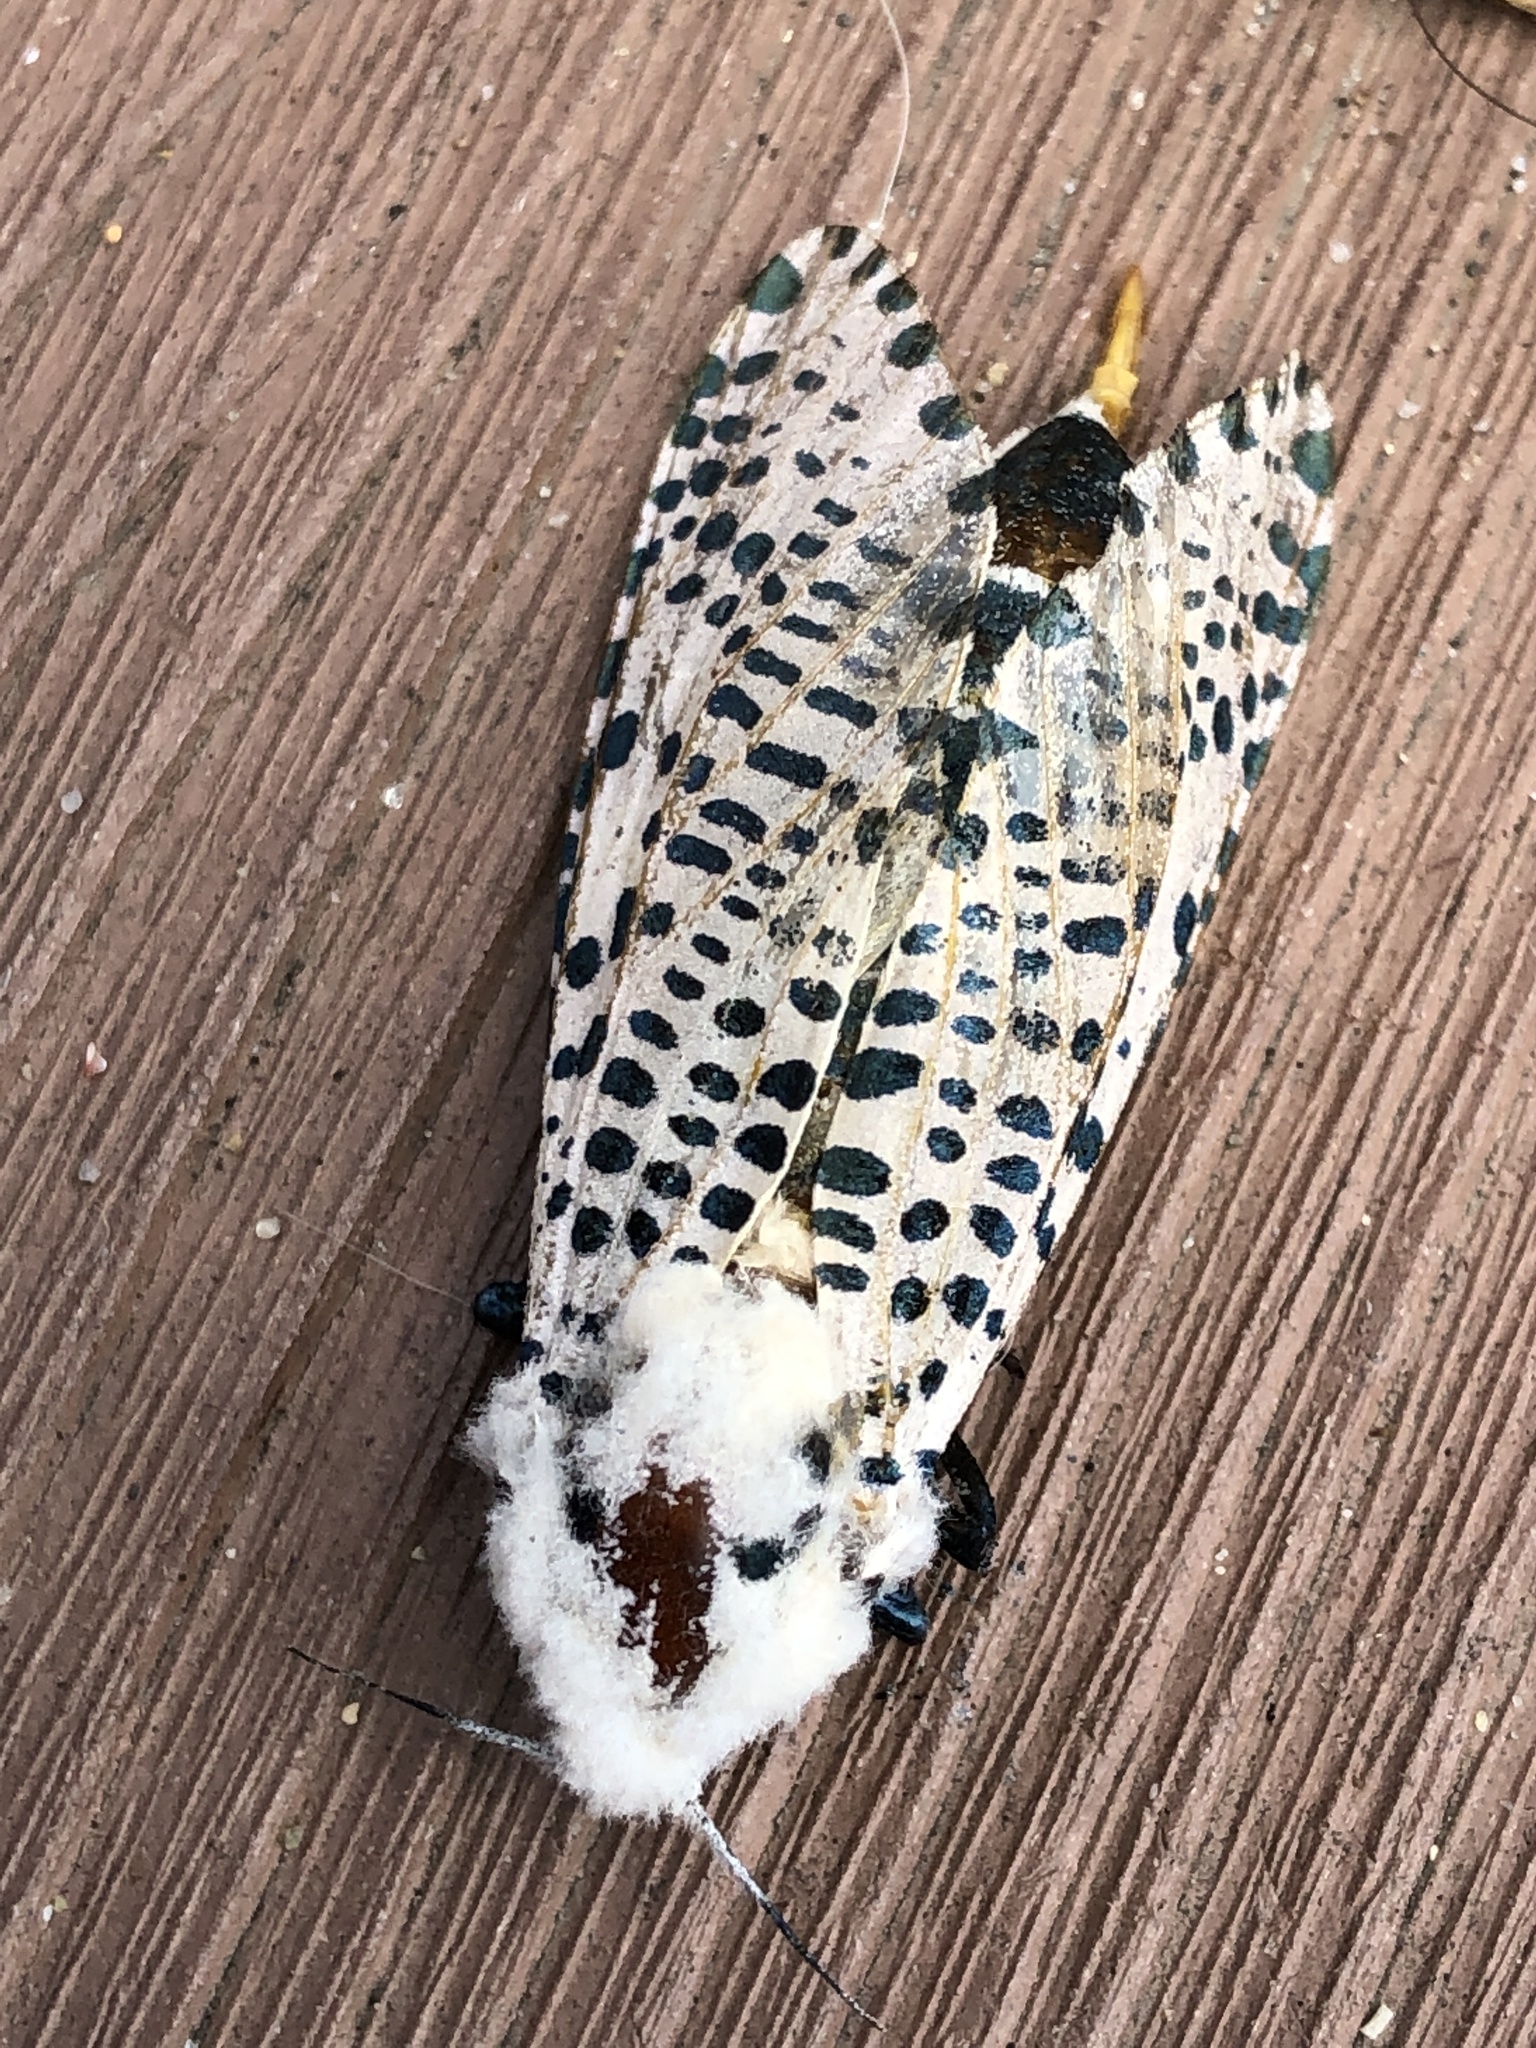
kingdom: Animalia
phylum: Arthropoda
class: Insecta
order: Lepidoptera
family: Cossidae
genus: Zeuzera
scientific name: Zeuzera multistrigata
